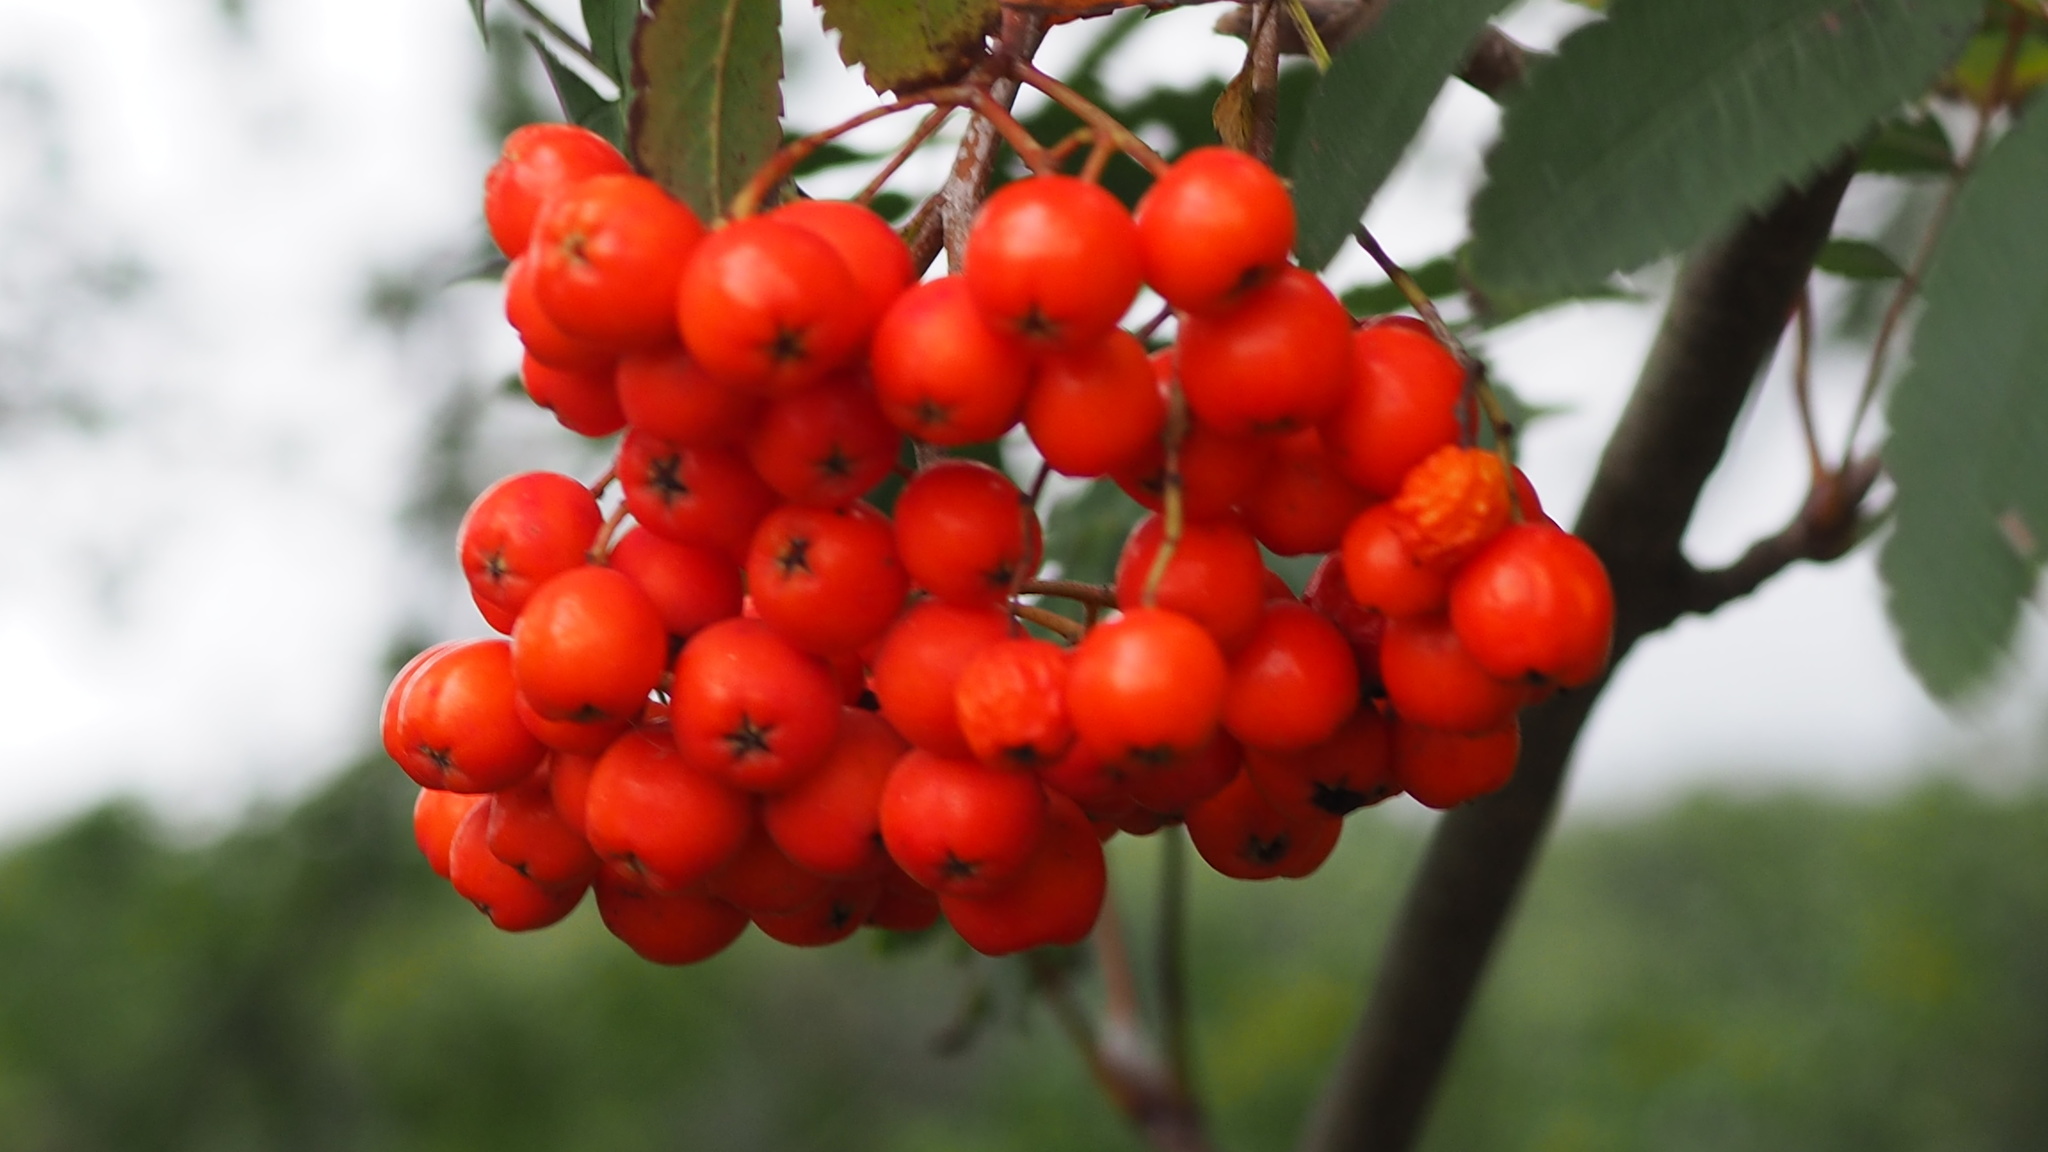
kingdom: Plantae
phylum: Tracheophyta
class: Magnoliopsida
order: Rosales
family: Rosaceae
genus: Sorbus
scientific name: Sorbus aucuparia
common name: Rowan
